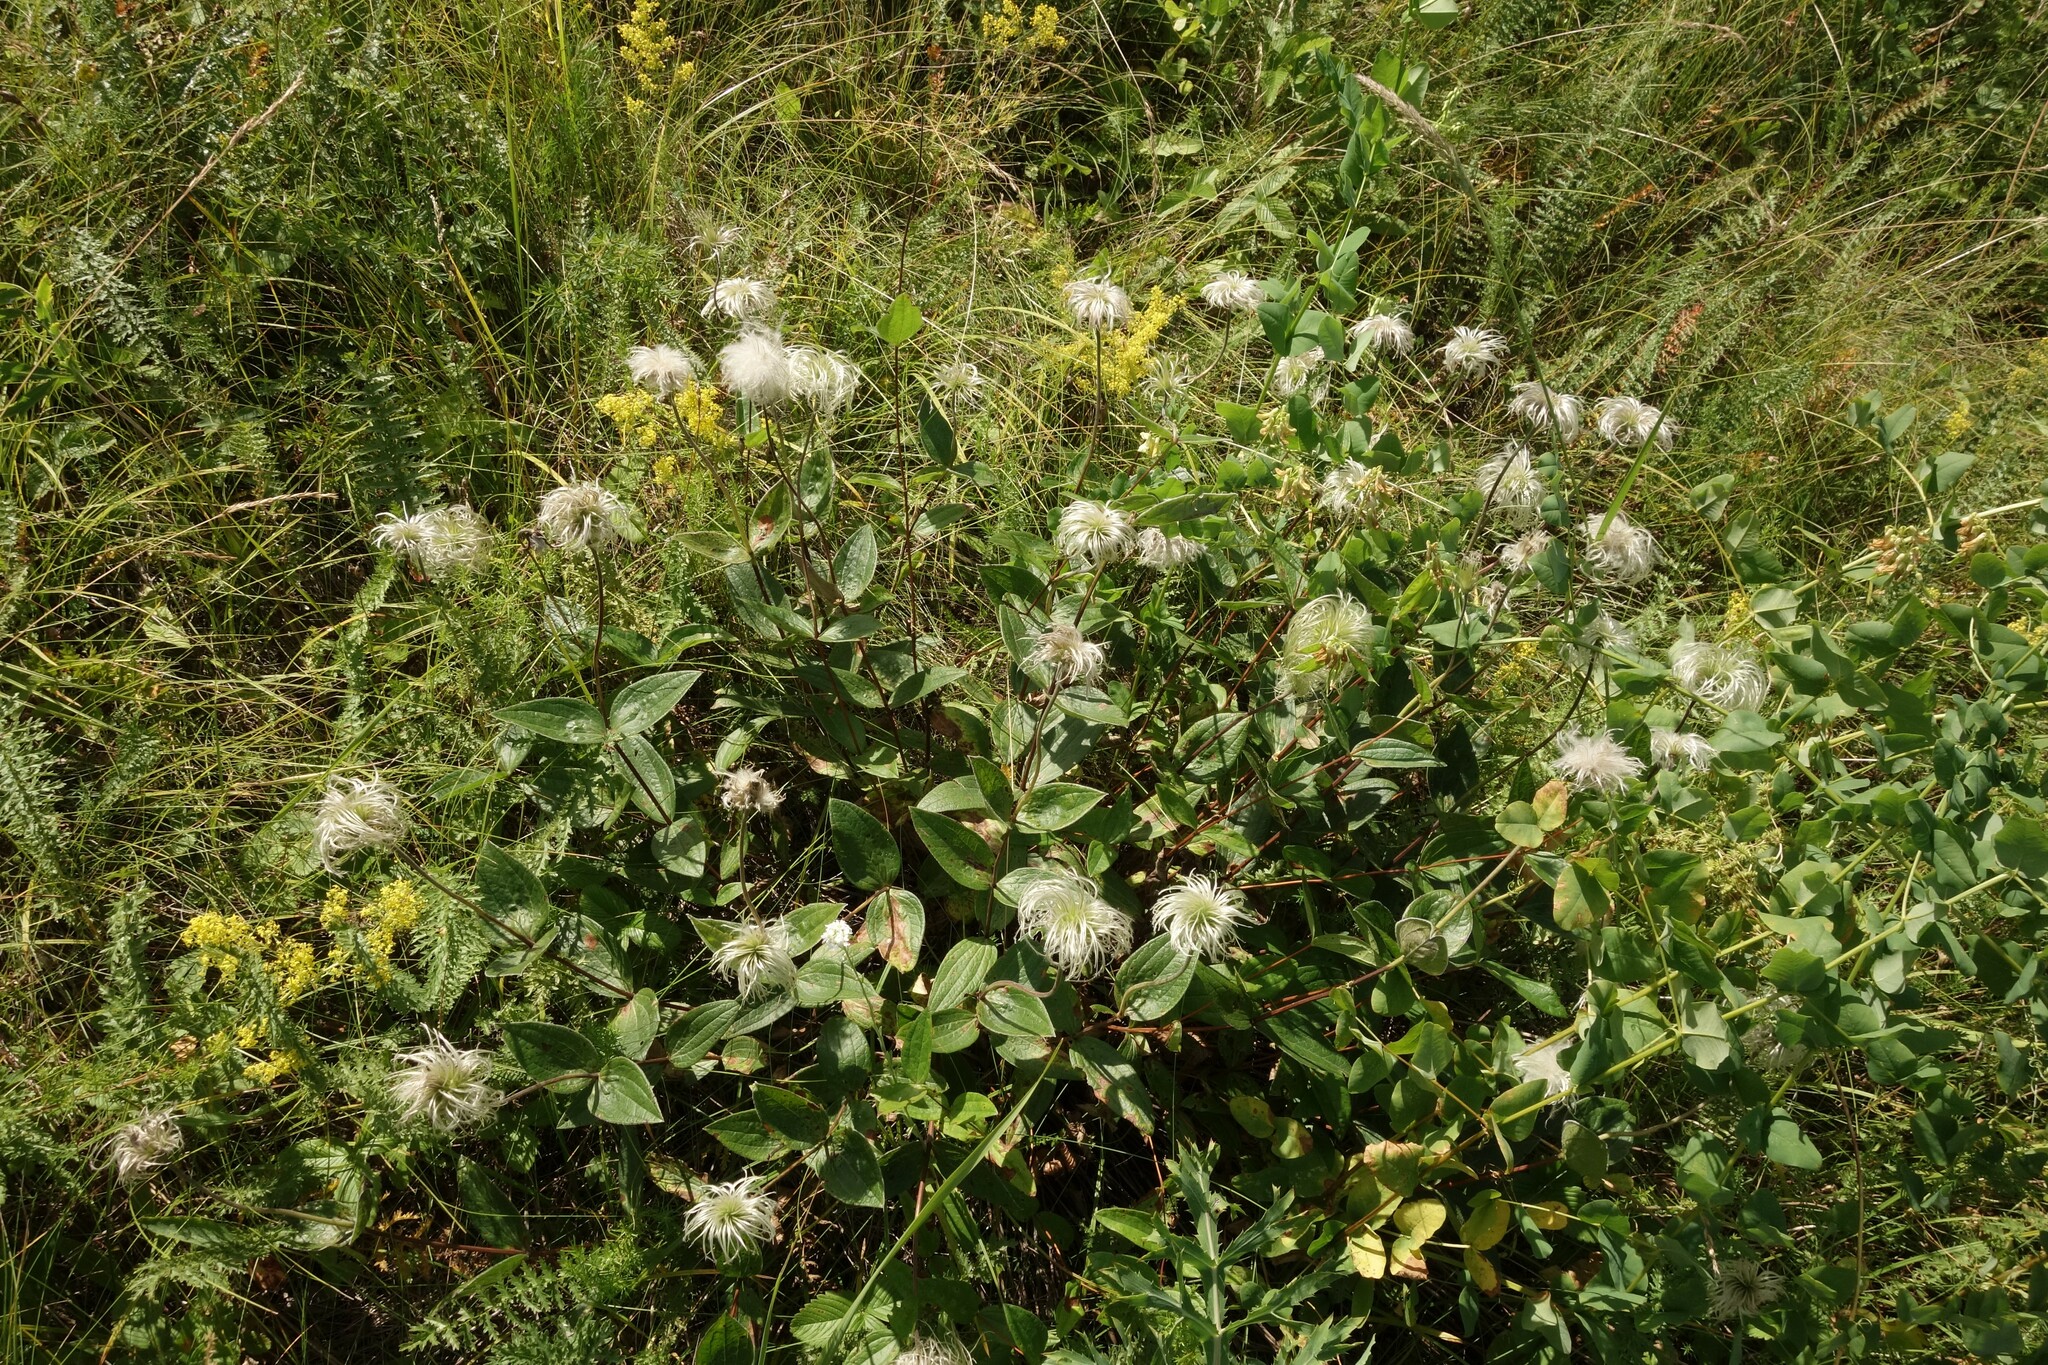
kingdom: Plantae
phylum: Tracheophyta
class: Magnoliopsida
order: Ranunculales
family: Ranunculaceae
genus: Clematis
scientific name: Clematis integrifolia
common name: Solitary clematis
